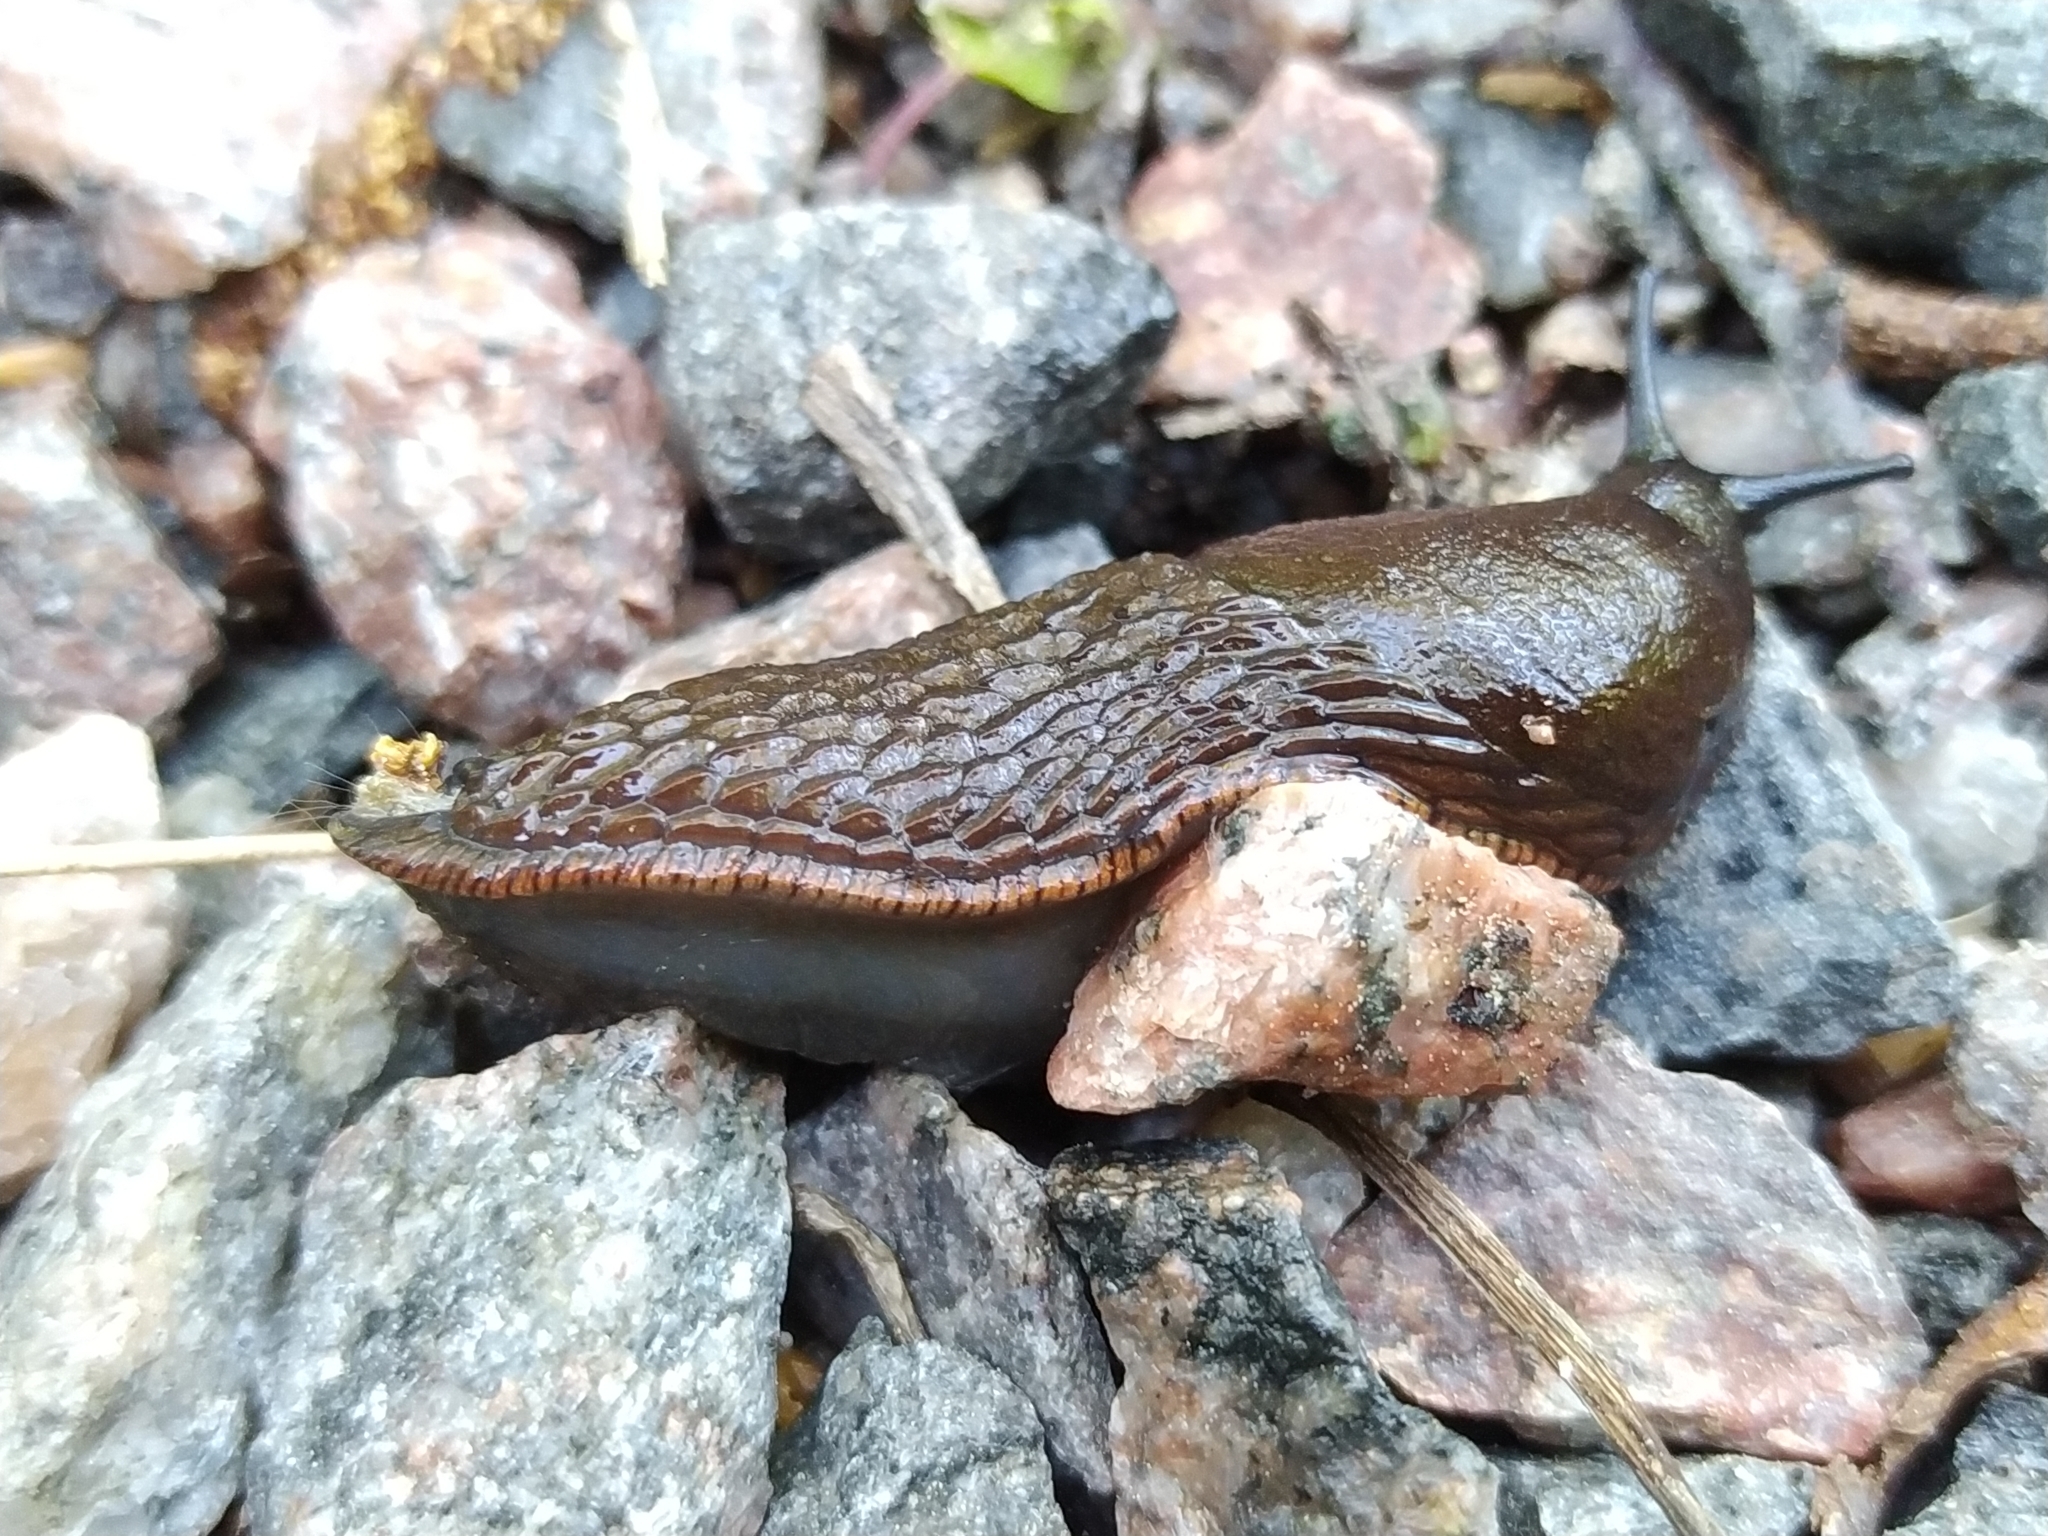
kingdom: Animalia
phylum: Mollusca
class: Gastropoda
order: Stylommatophora
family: Arionidae
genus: Arion
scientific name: Arion vulgaris
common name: Lusitanian slug
